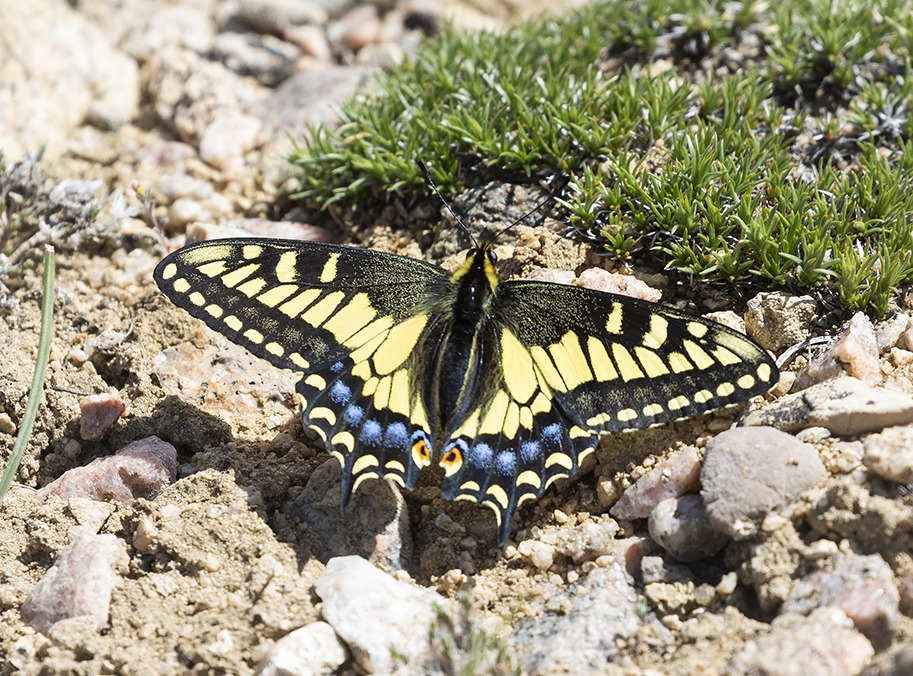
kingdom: Animalia
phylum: Arthropoda
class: Insecta
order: Lepidoptera
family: Papilionidae
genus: Papilio
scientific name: Papilio zelicaon
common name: Anise swallowtail
